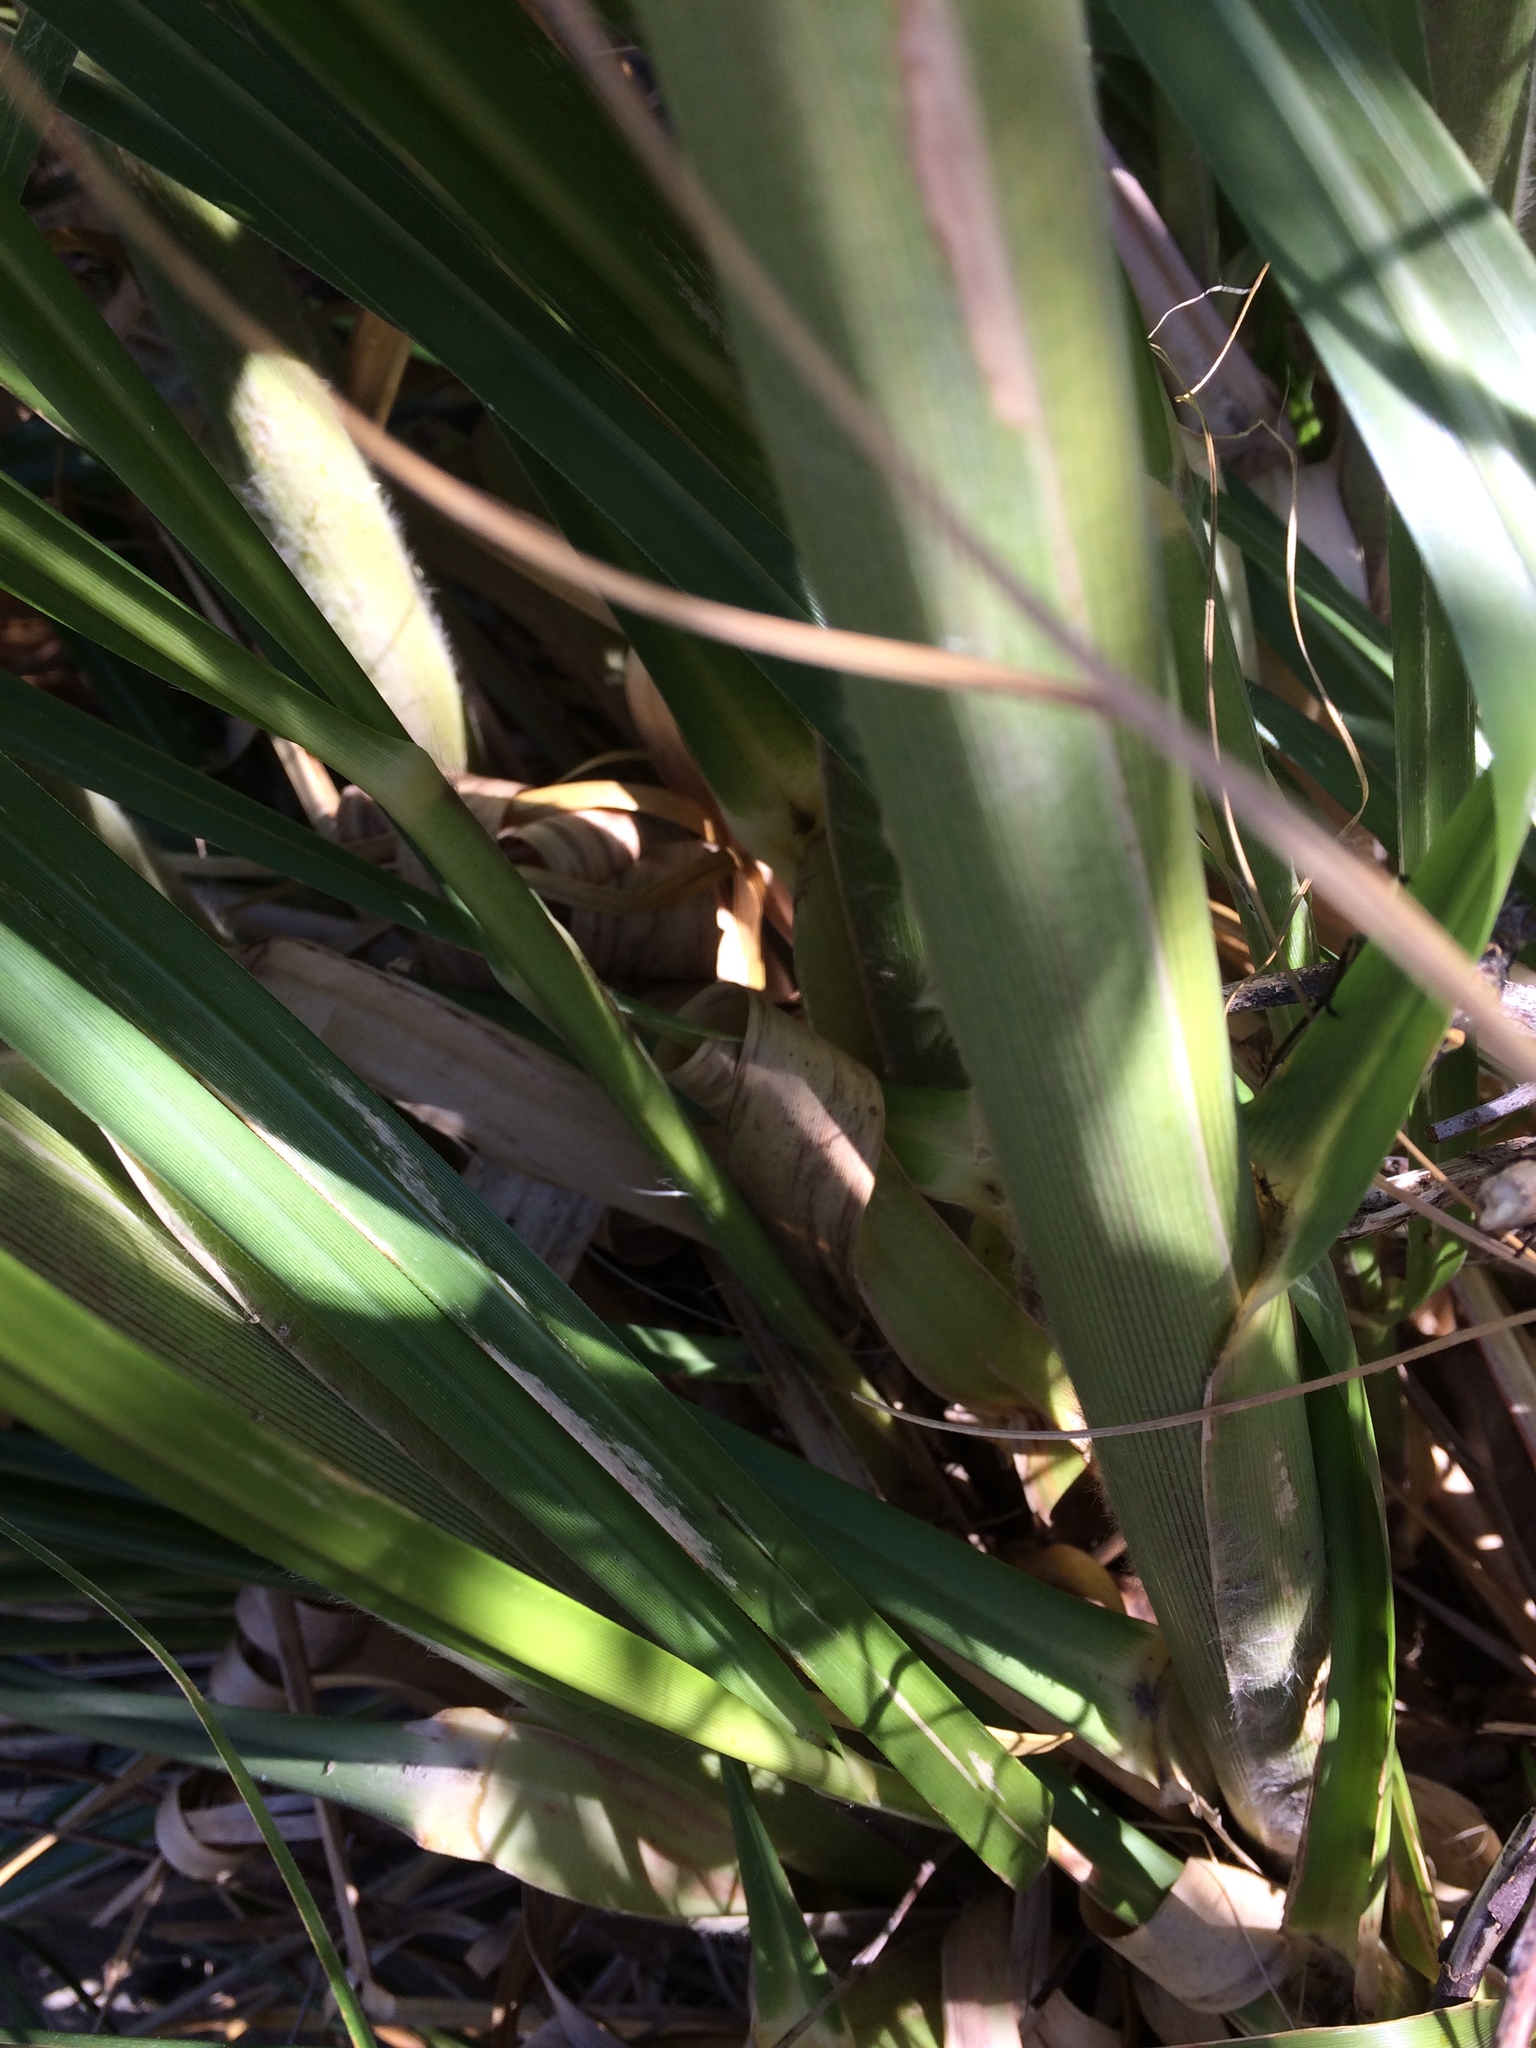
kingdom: Plantae
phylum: Tracheophyta
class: Liliopsida
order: Poales
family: Poaceae
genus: Cortaderia
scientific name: Cortaderia jubata
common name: Purple pampas grass
